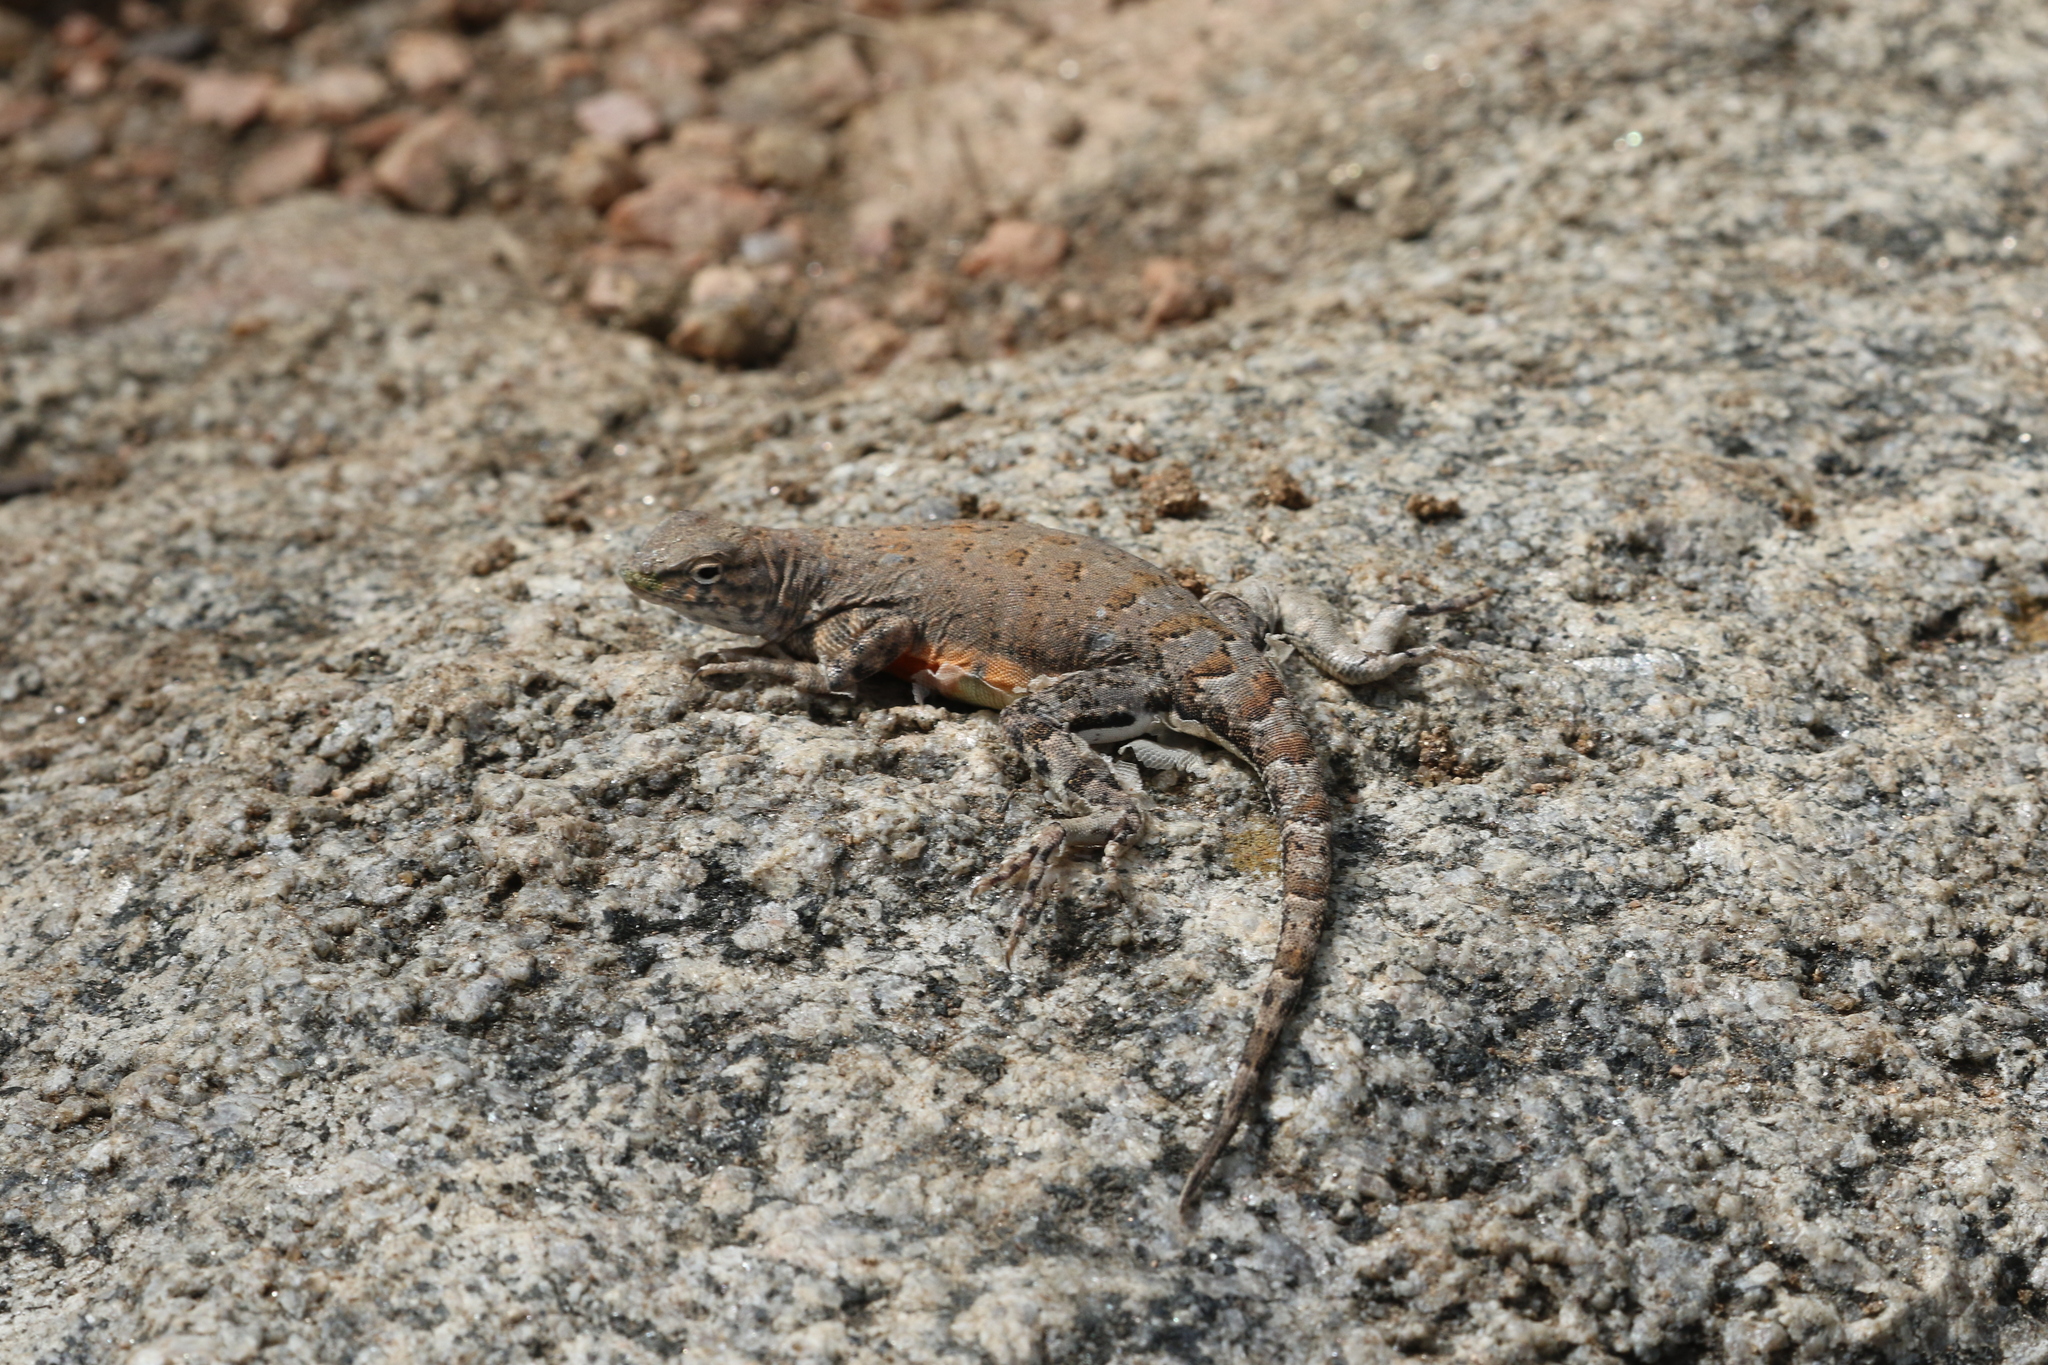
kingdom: Animalia
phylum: Chordata
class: Squamata
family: Phrynosomatidae
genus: Cophosaurus
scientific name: Cophosaurus texanus
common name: Greater earless lizard
